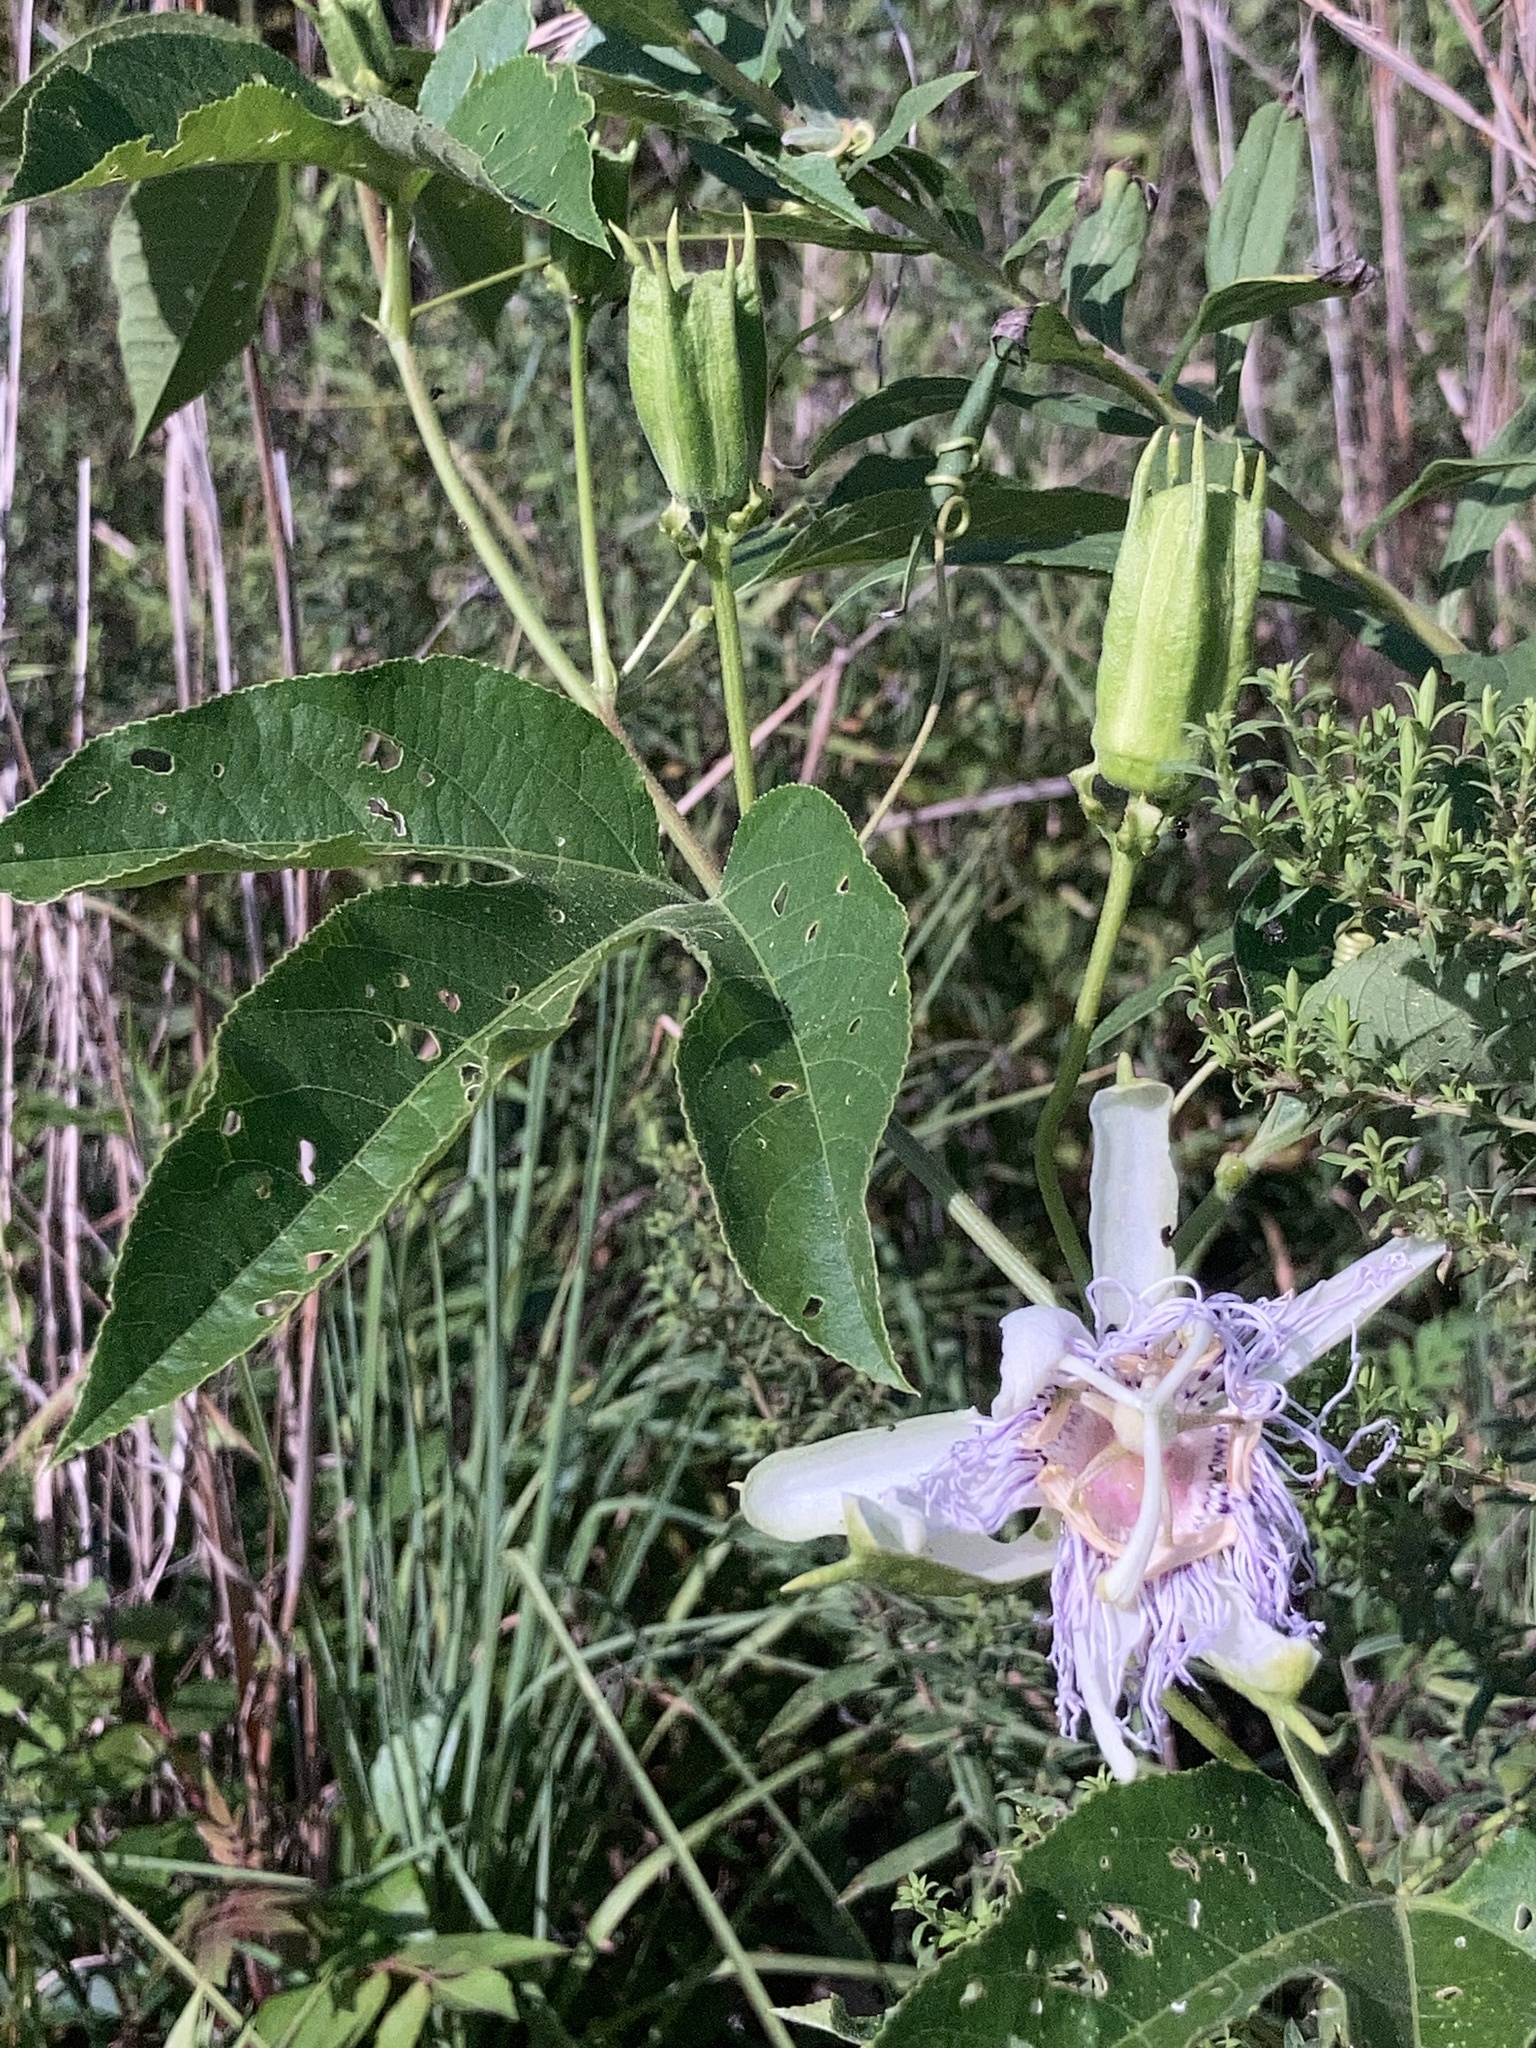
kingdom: Plantae
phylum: Tracheophyta
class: Magnoliopsida
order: Malpighiales
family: Passifloraceae
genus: Passiflora
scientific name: Passiflora incarnata
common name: Apricot-vine
